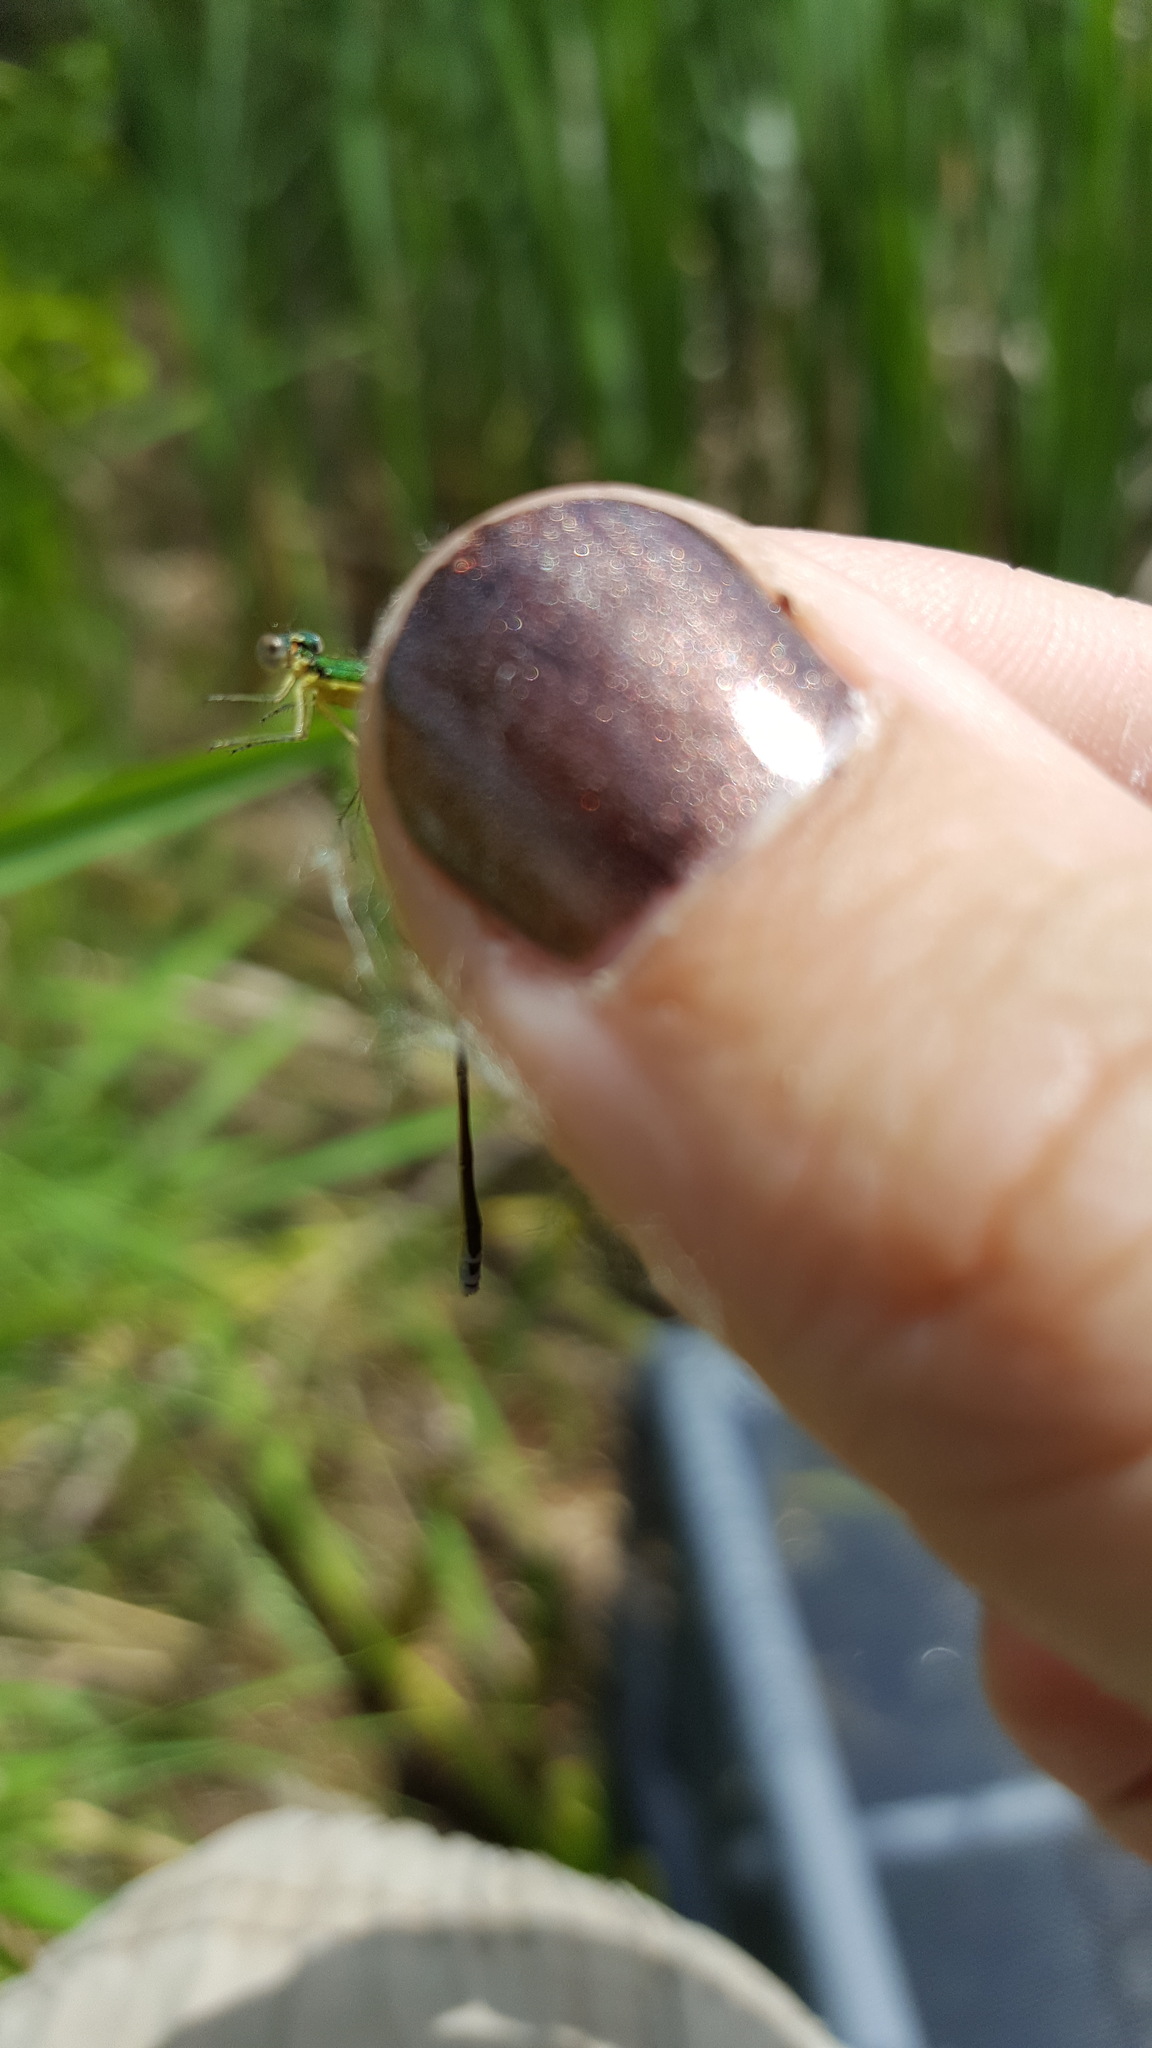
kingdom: Animalia
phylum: Arthropoda
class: Insecta
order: Odonata
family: Coenagrionidae
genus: Nehalennia
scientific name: Nehalennia irene
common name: Sedge sprite
